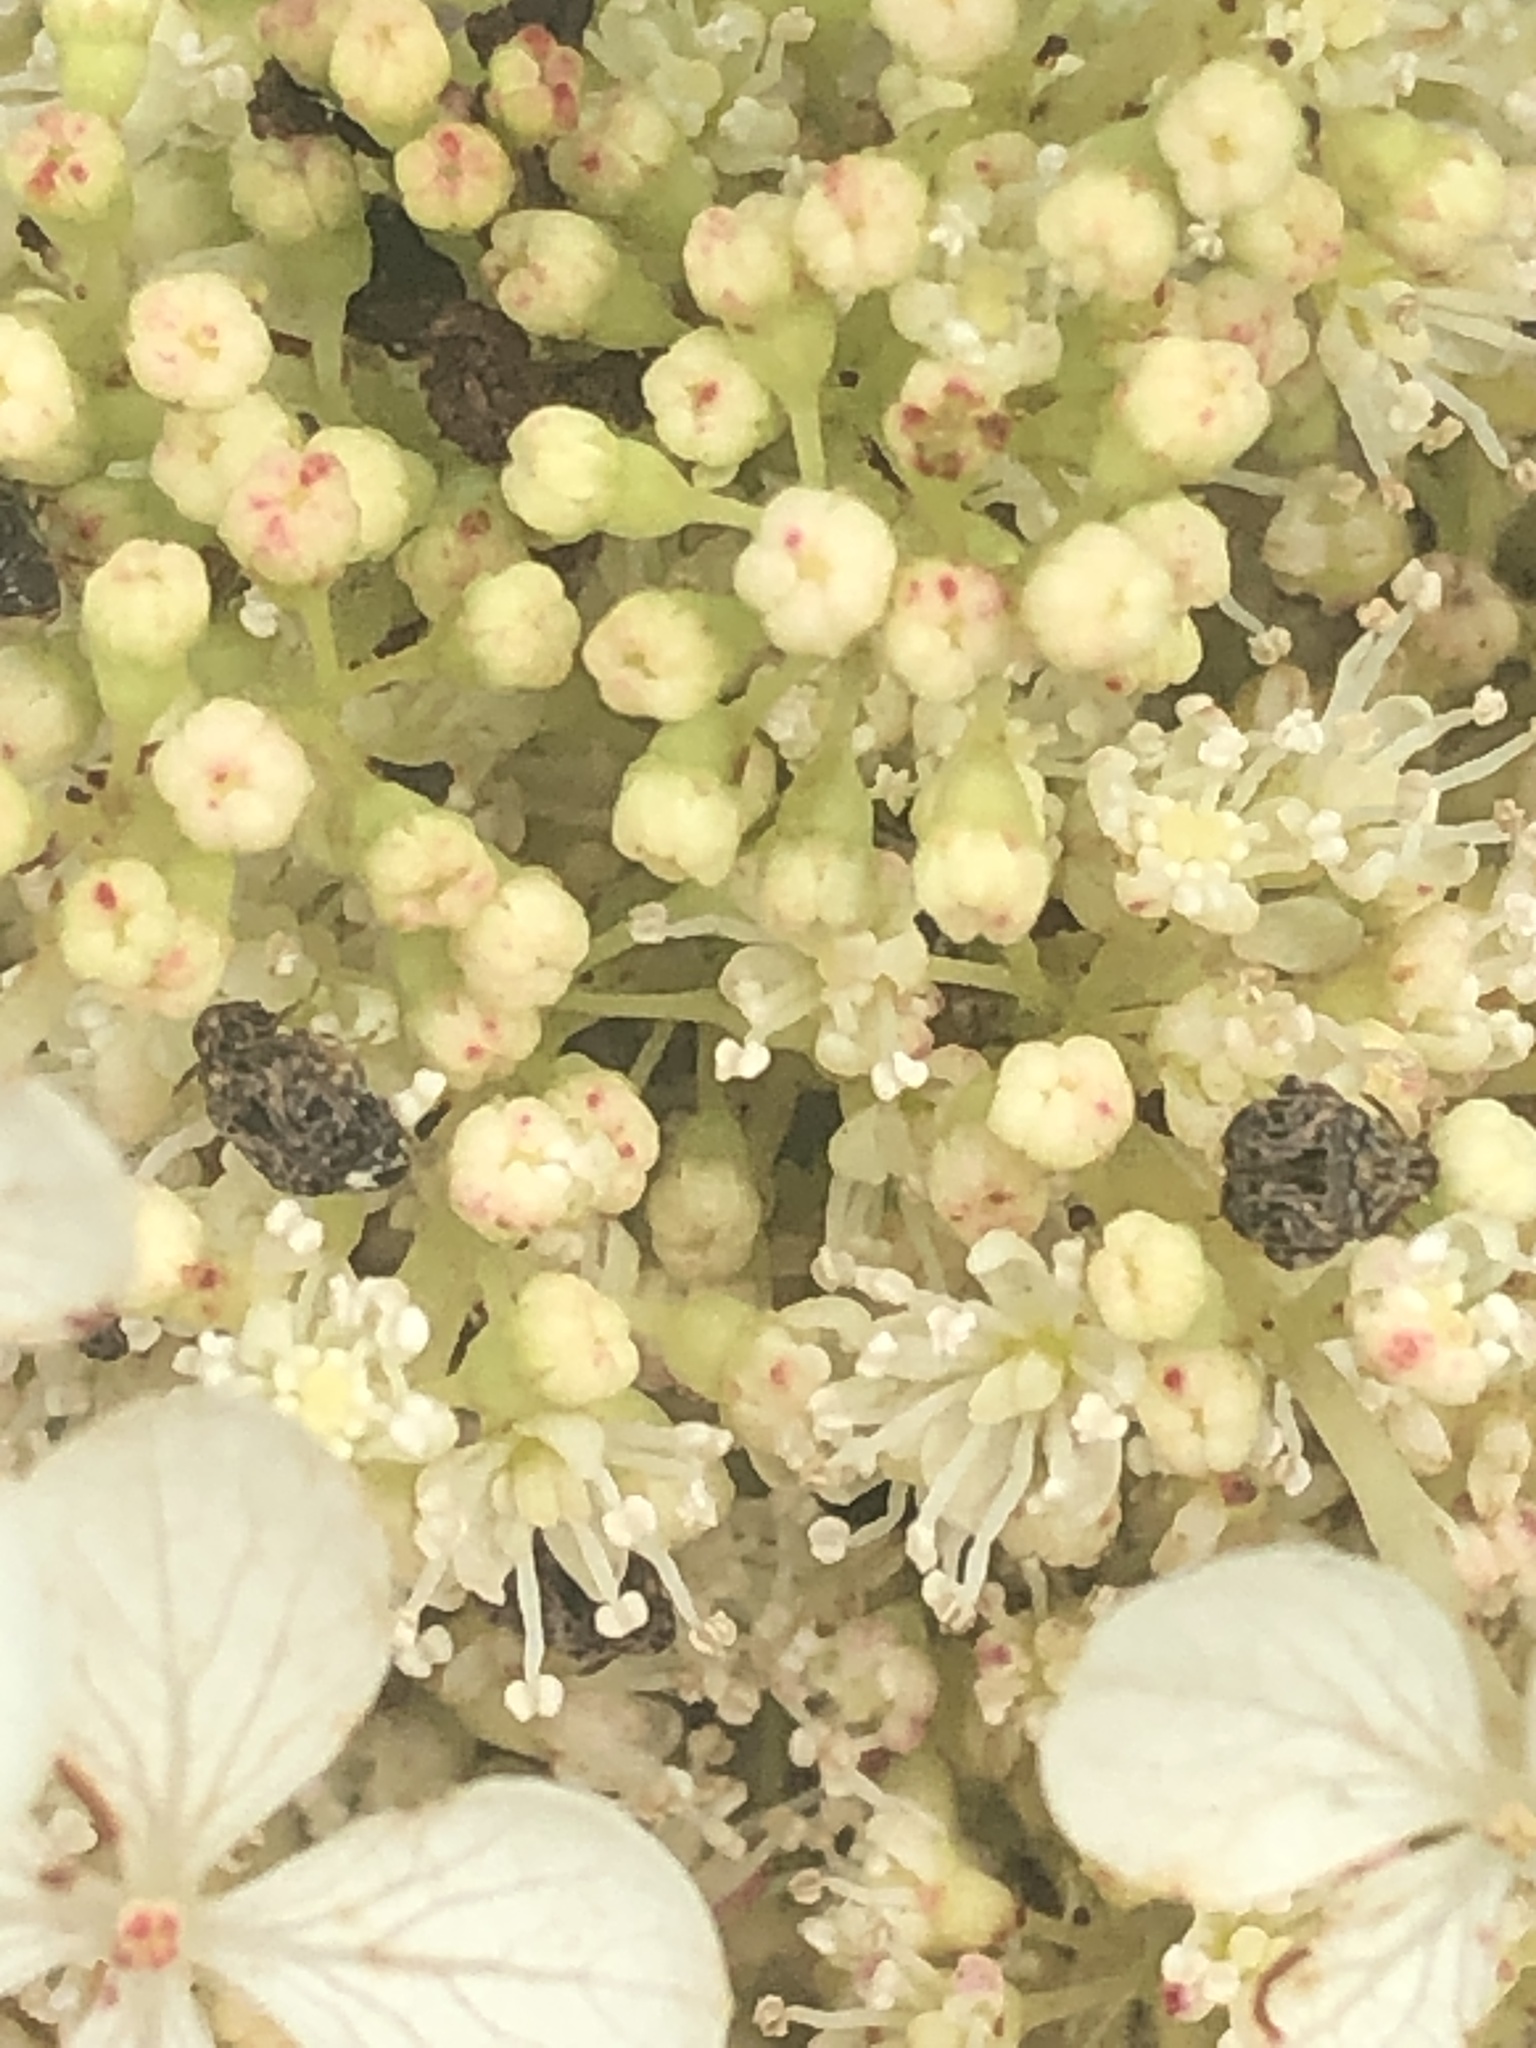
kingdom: Animalia
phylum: Arthropoda
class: Insecta
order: Coleoptera
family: Chrysomelidae
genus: Gibbobruchus
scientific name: Gibbobruchus mimus
